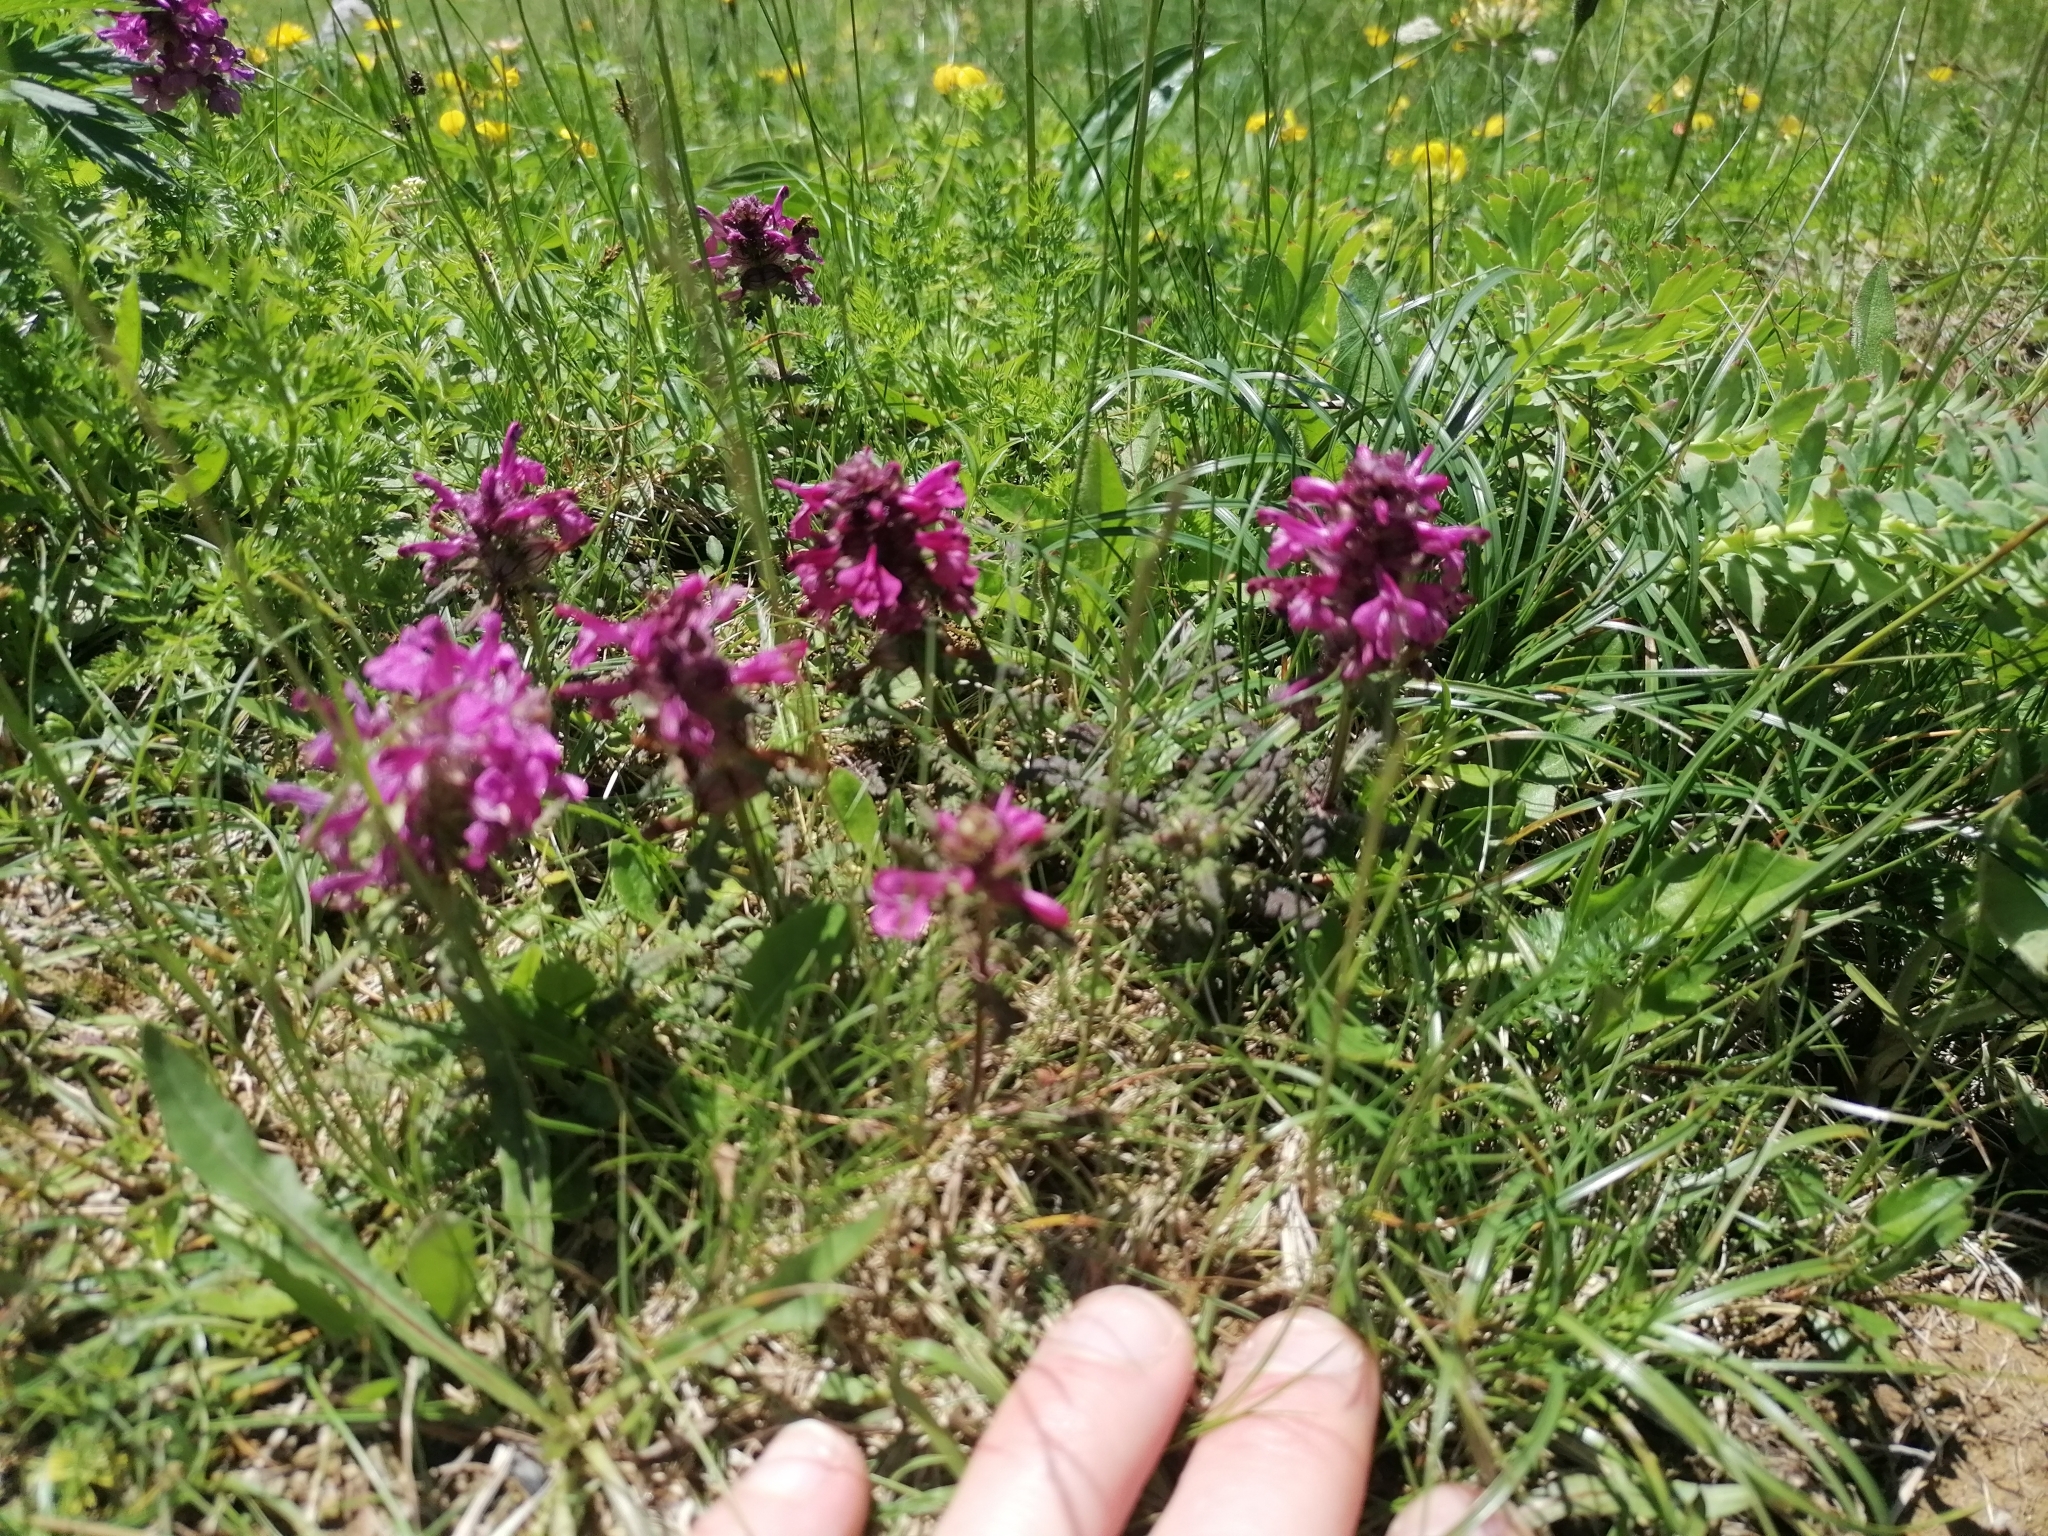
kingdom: Plantae
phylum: Tracheophyta
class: Magnoliopsida
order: Lamiales
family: Orobanchaceae
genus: Pedicularis
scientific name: Pedicularis verticillata
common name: Whorled lousewort
